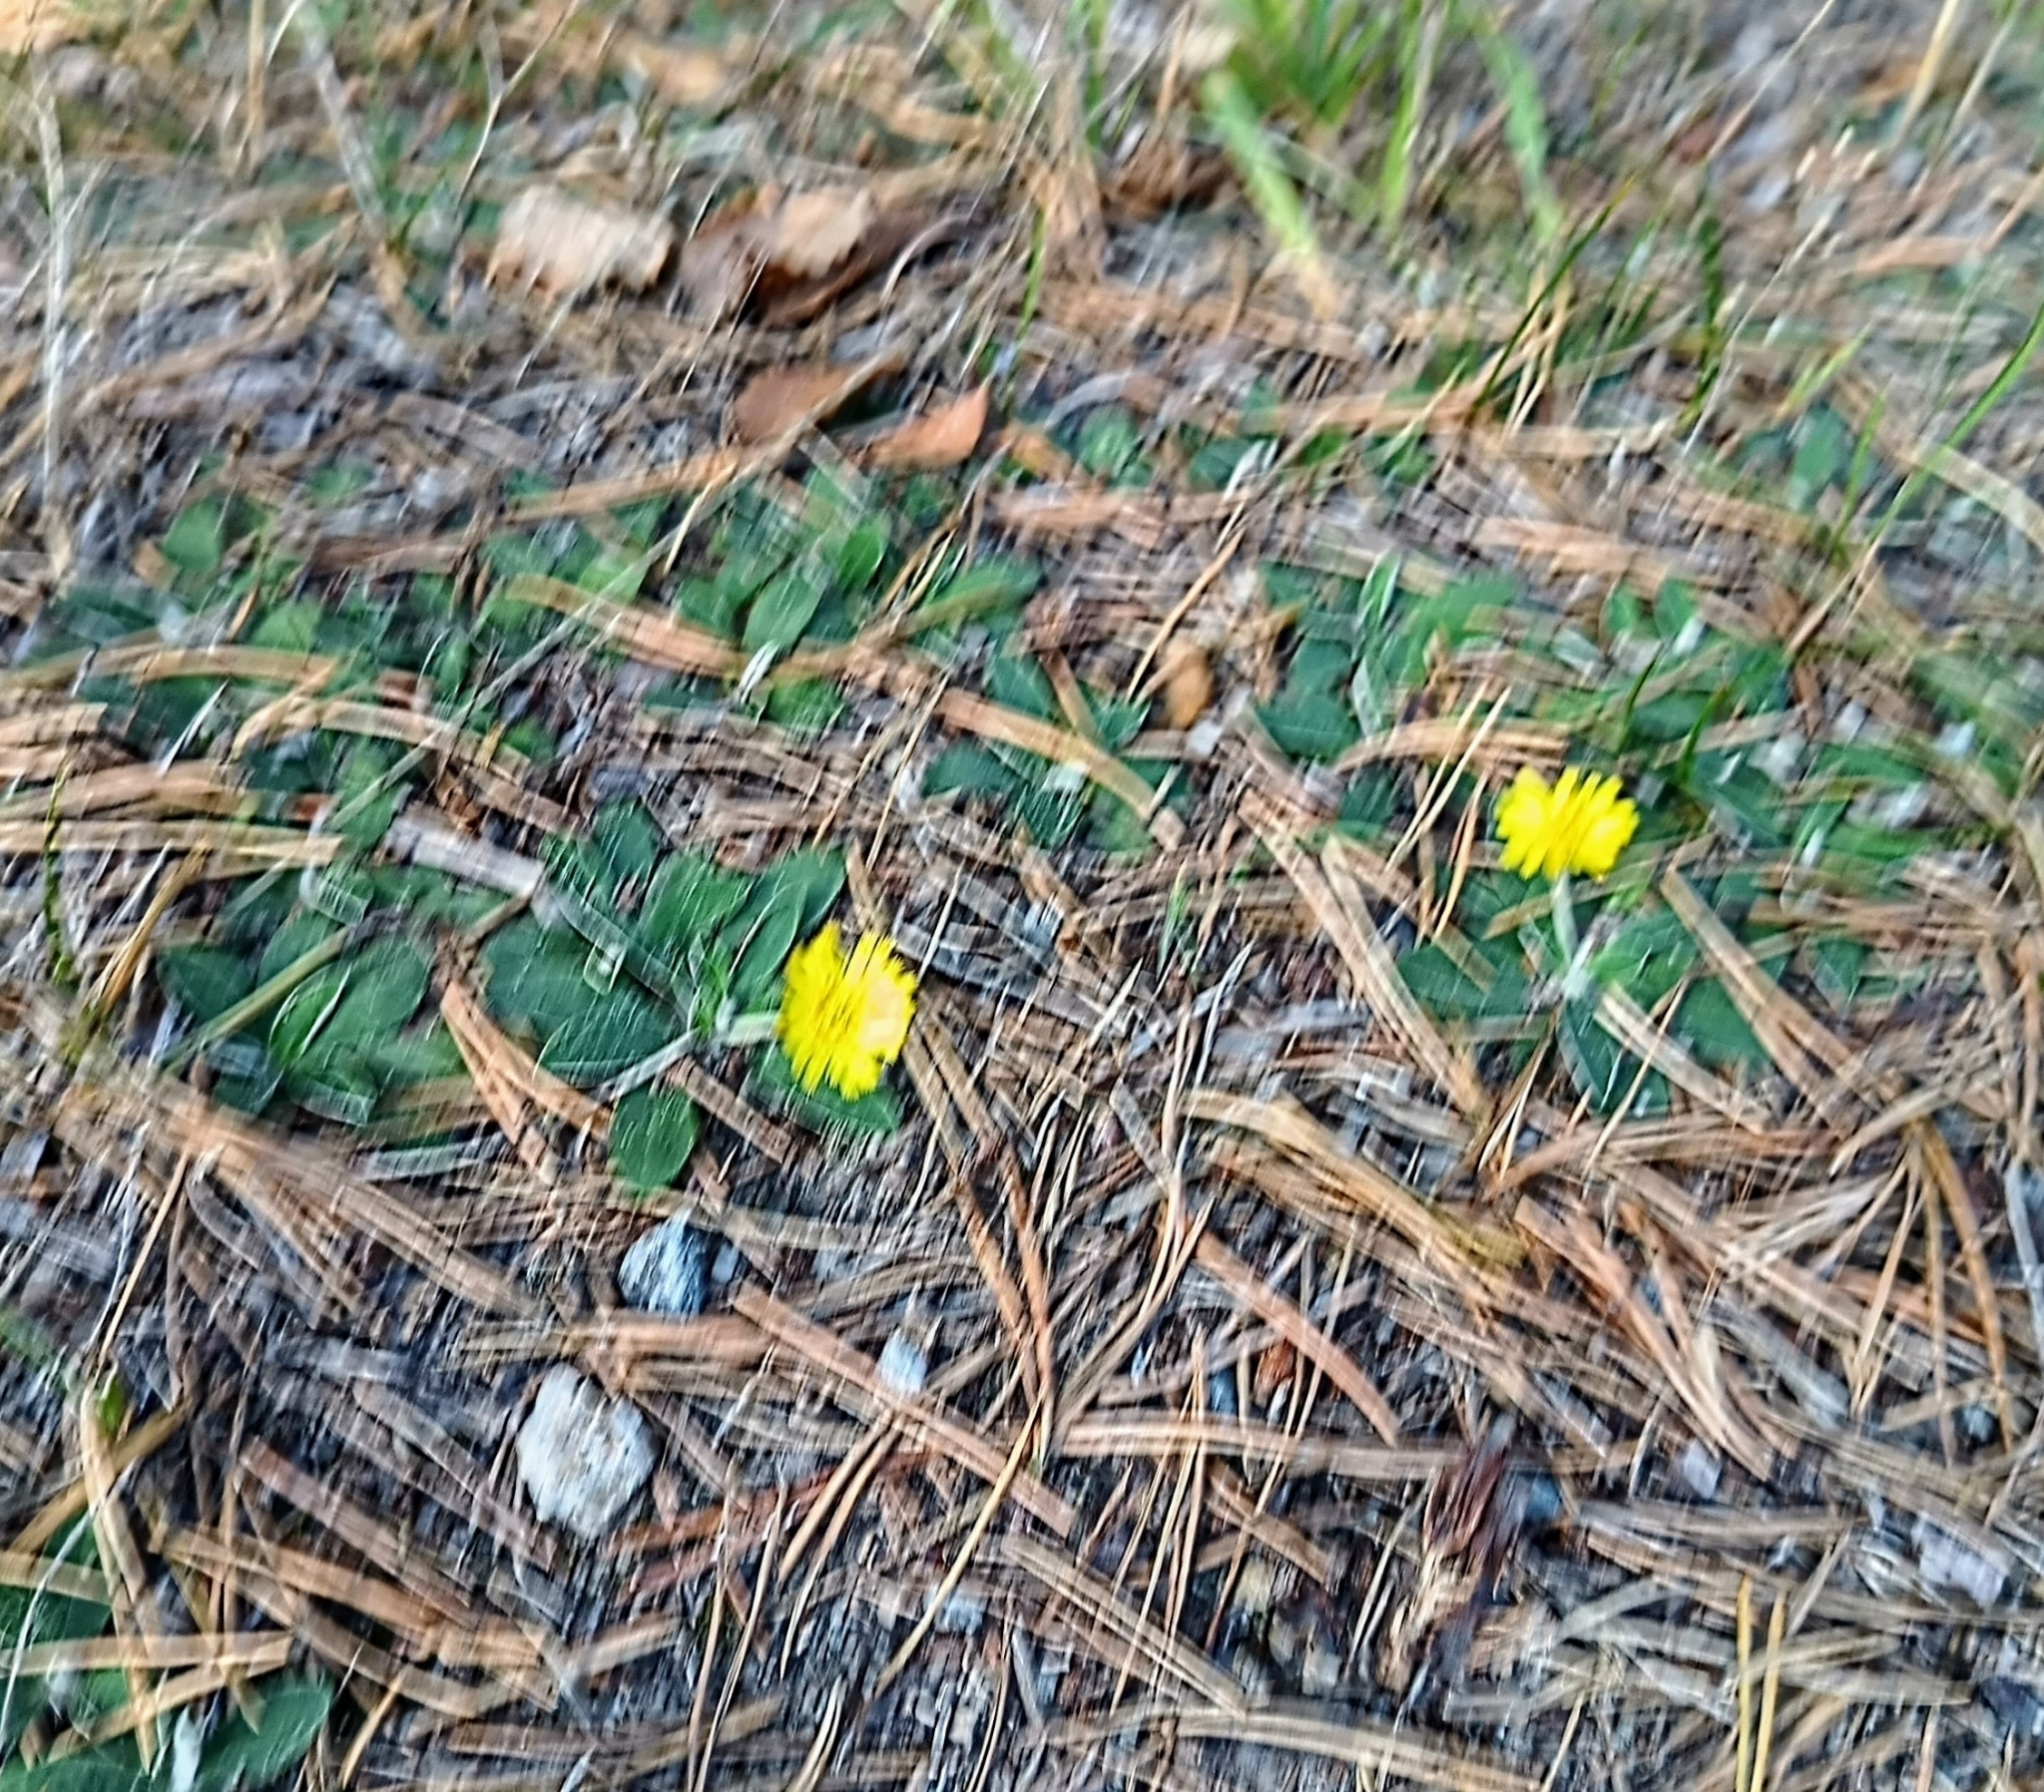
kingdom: Plantae
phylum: Tracheophyta
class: Magnoliopsida
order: Asterales
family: Asteraceae
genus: Pilosella
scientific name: Pilosella officinarum
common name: Mouse-ear hawkweed
